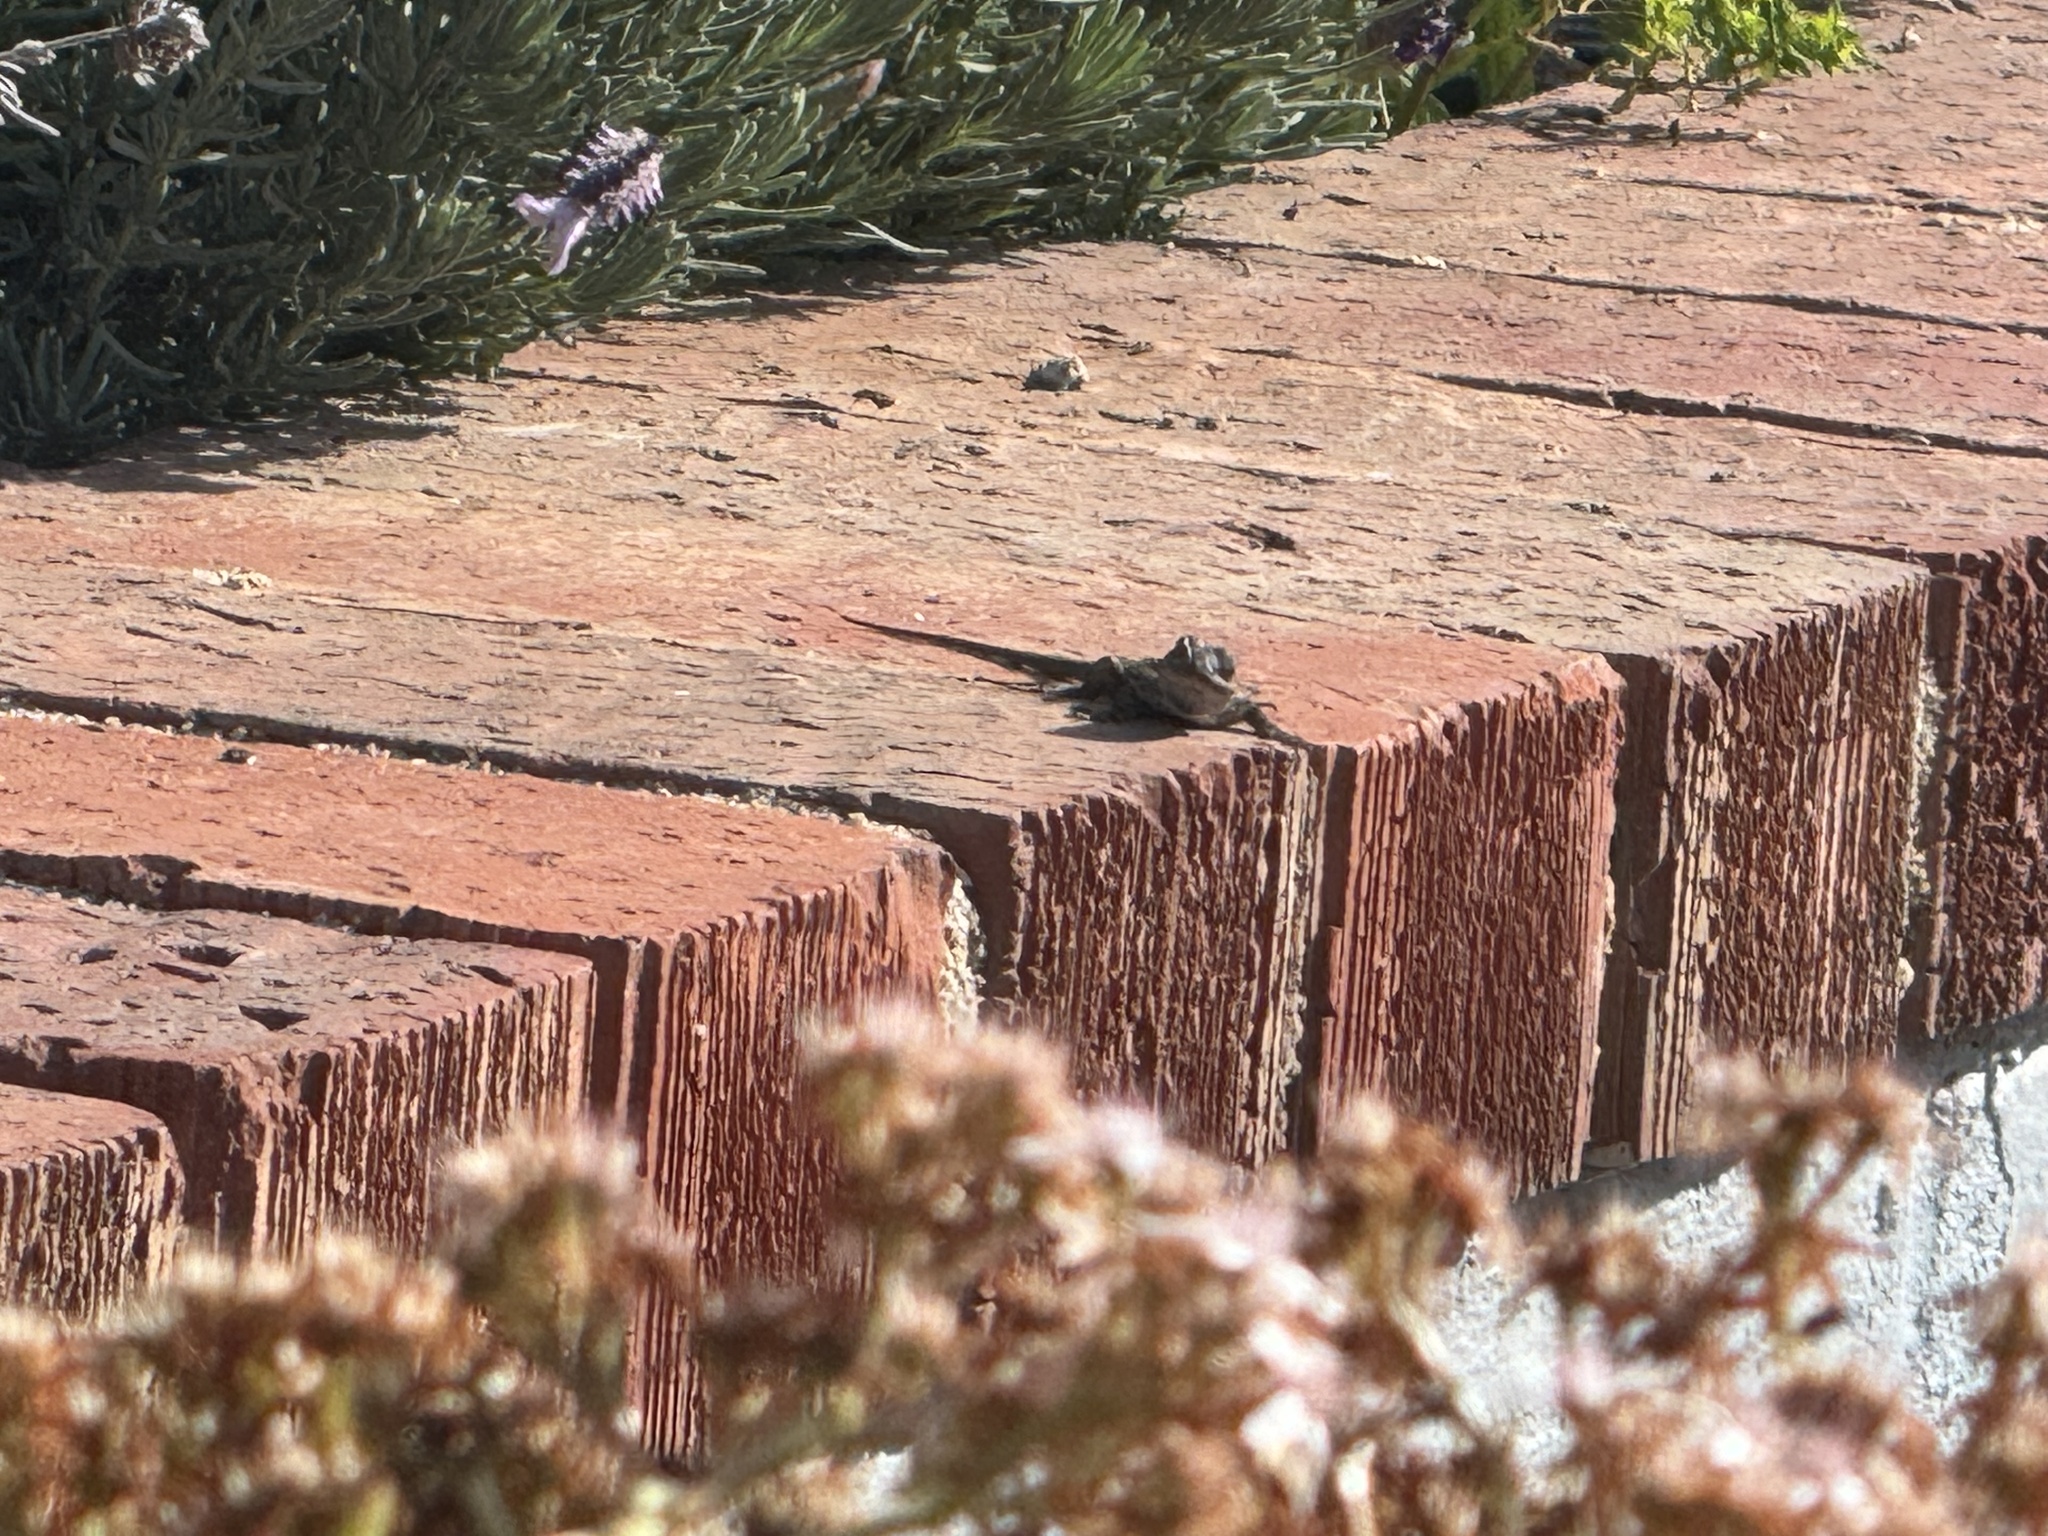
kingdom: Animalia
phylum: Chordata
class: Squamata
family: Phrynosomatidae
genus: Sceloporus
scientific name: Sceloporus occidentalis
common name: Western fence lizard
